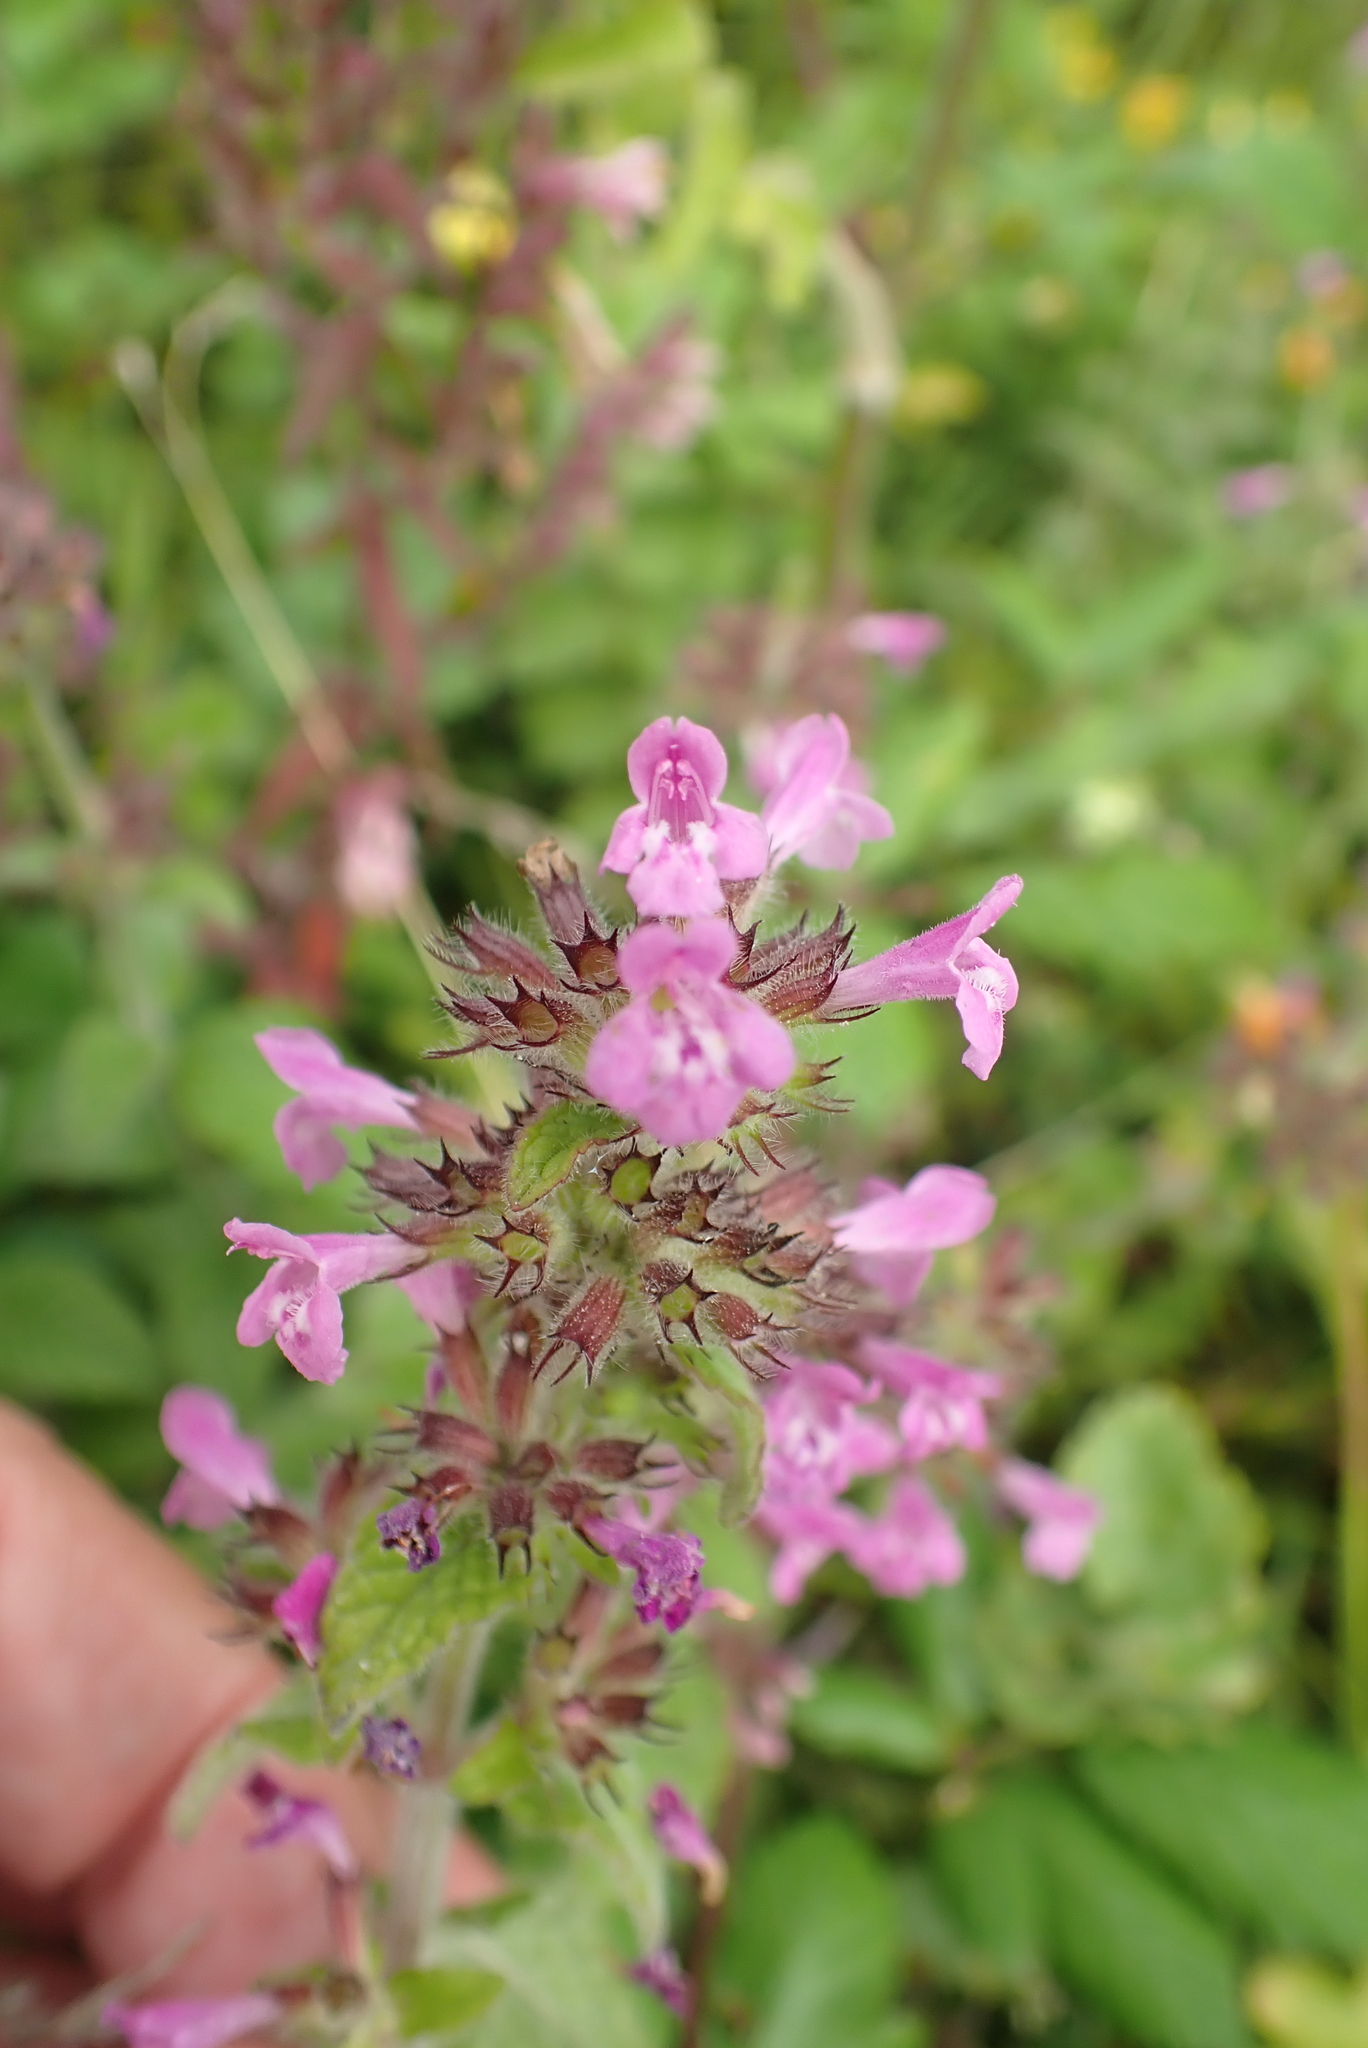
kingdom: Plantae
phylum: Tracheophyta
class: Magnoliopsida
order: Lamiales
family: Lamiaceae
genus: Clinopodium
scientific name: Clinopodium vulgare
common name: Wild basil
